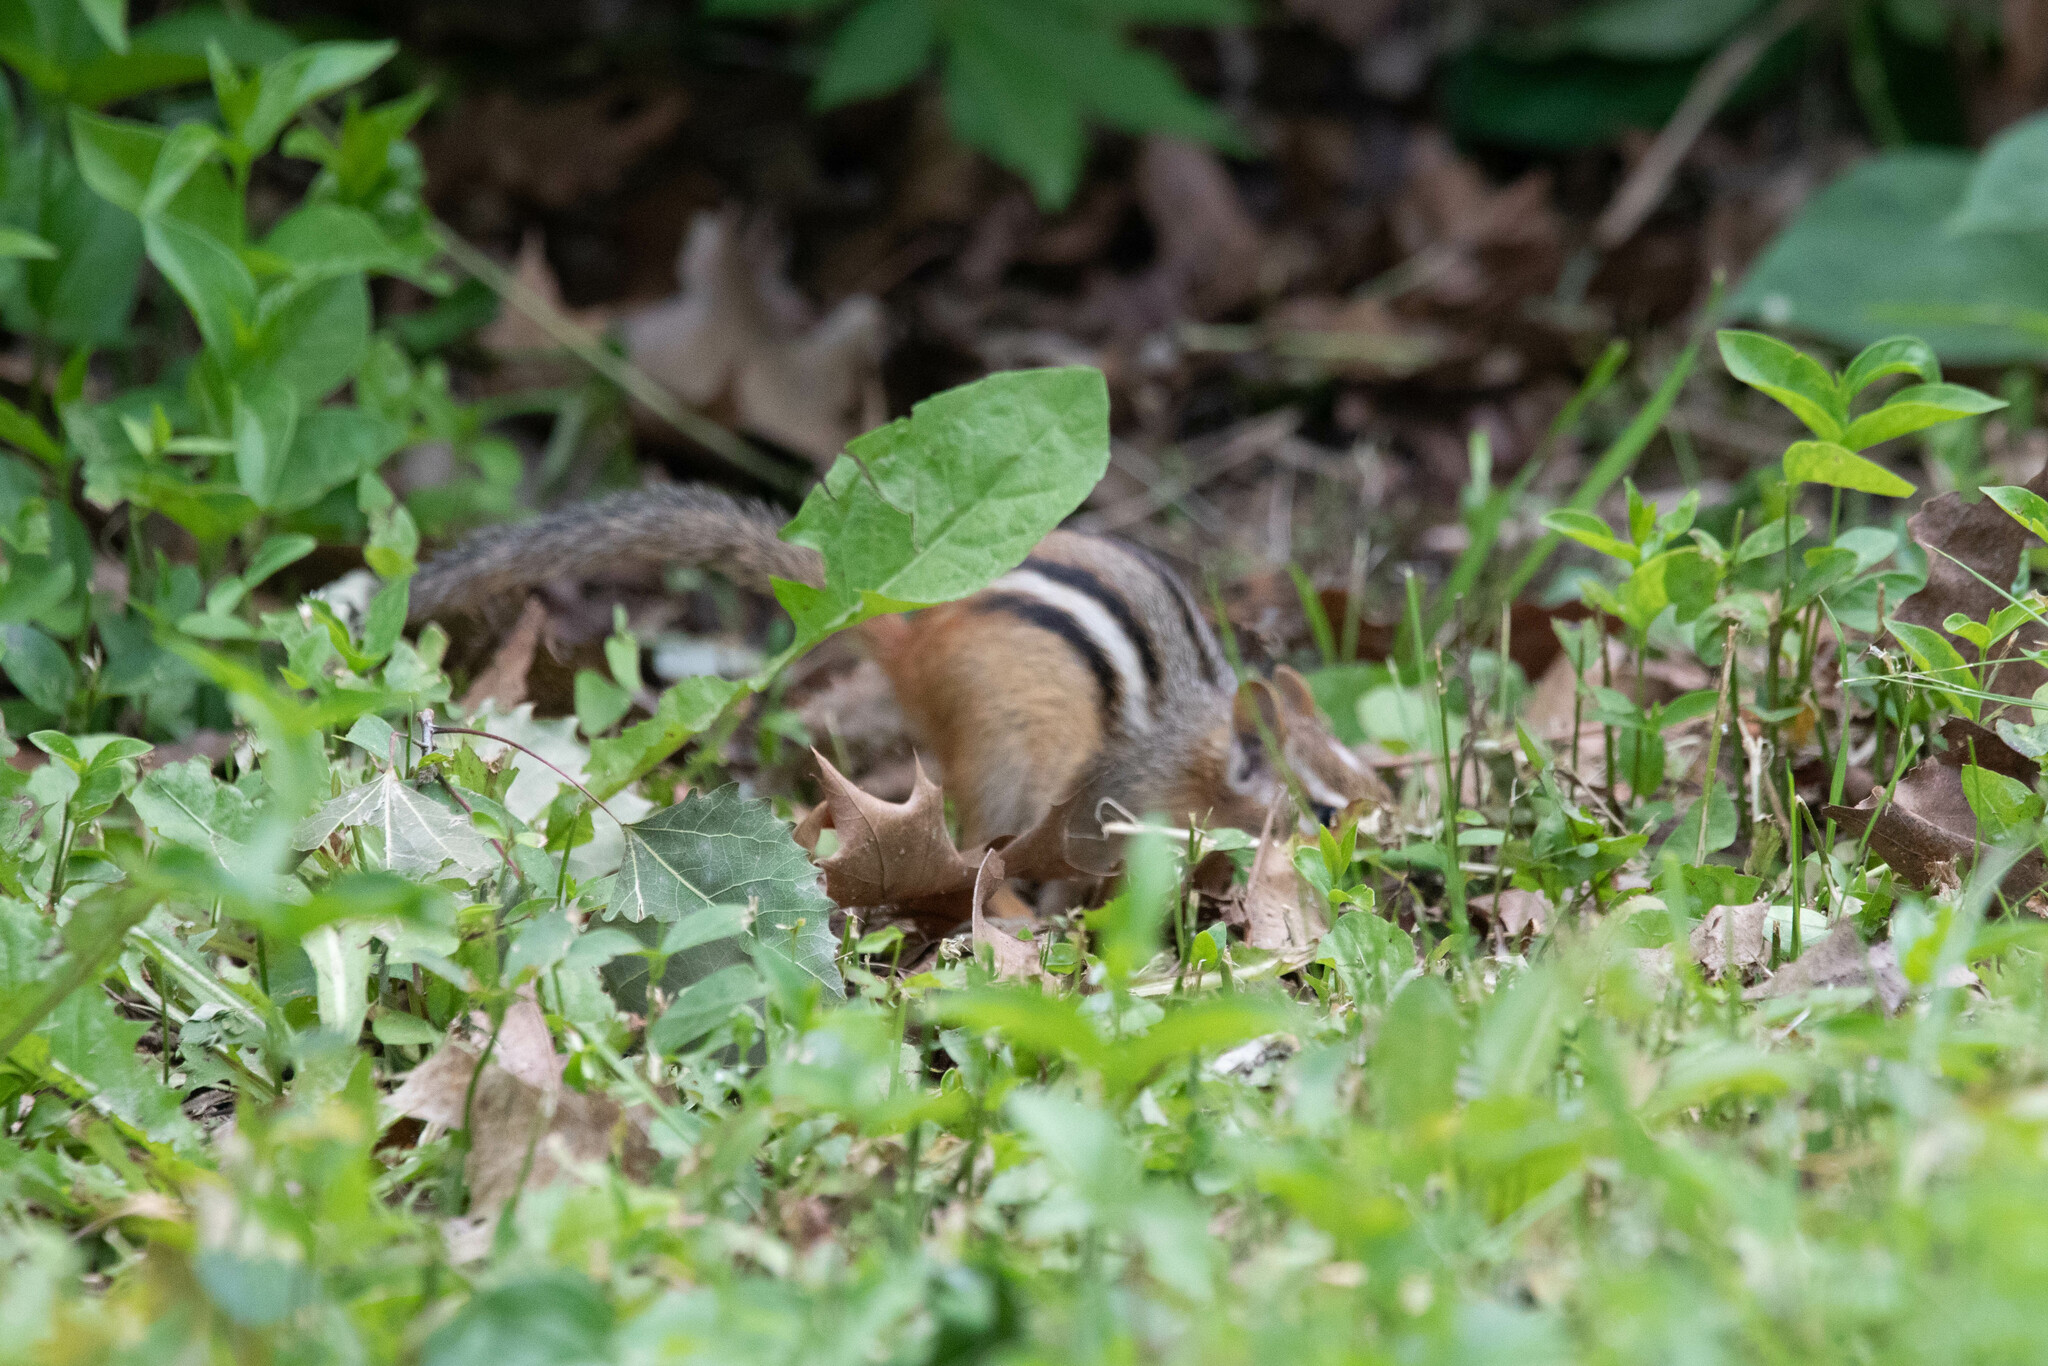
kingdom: Animalia
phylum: Chordata
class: Mammalia
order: Rodentia
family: Sciuridae
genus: Tamias
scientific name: Tamias striatus
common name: Eastern chipmunk
